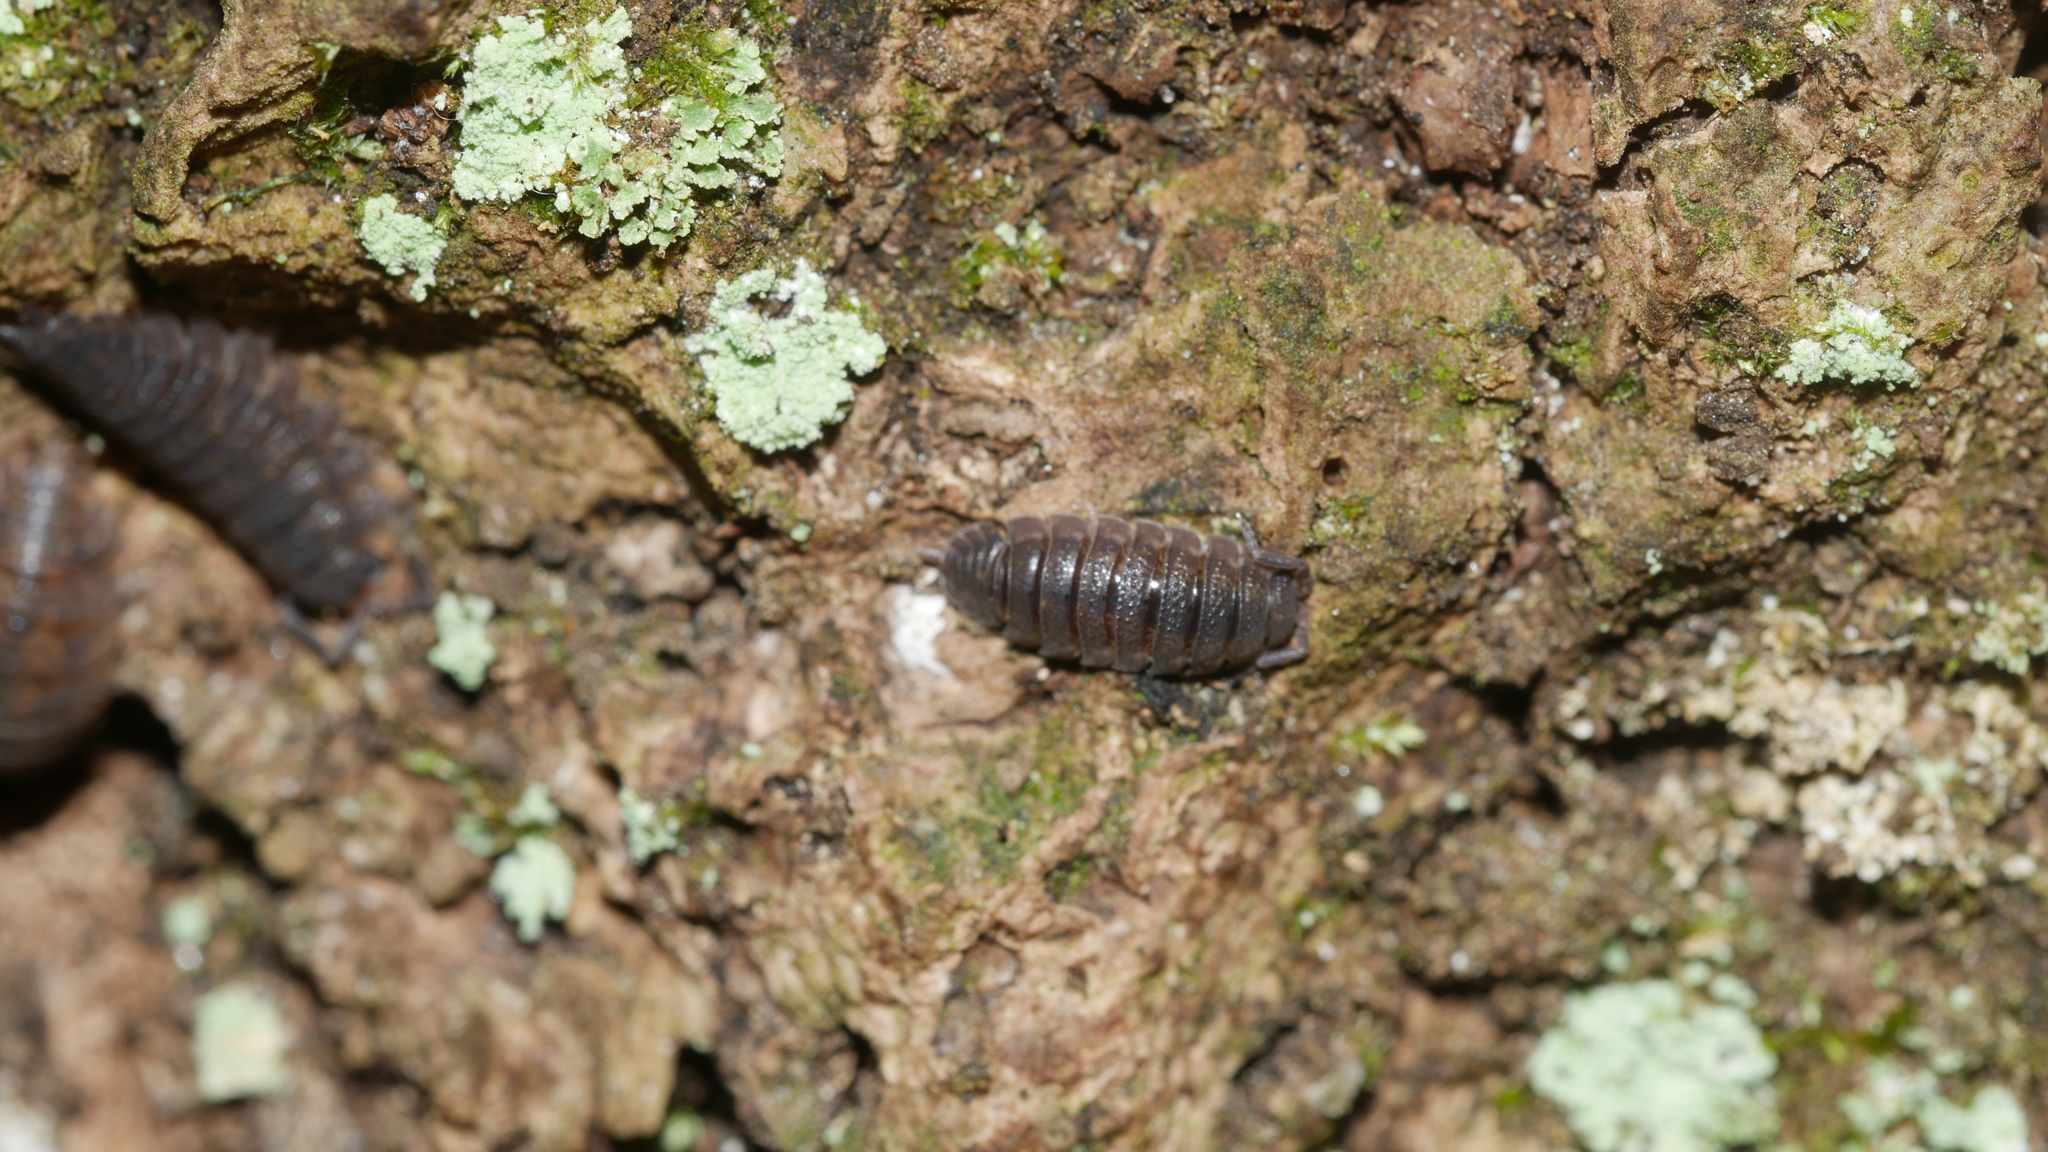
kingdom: Animalia
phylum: Arthropoda
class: Malacostraca
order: Isopoda
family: Porcellionidae
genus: Porcellio
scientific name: Porcellio scaber
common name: Common rough woodlouse
